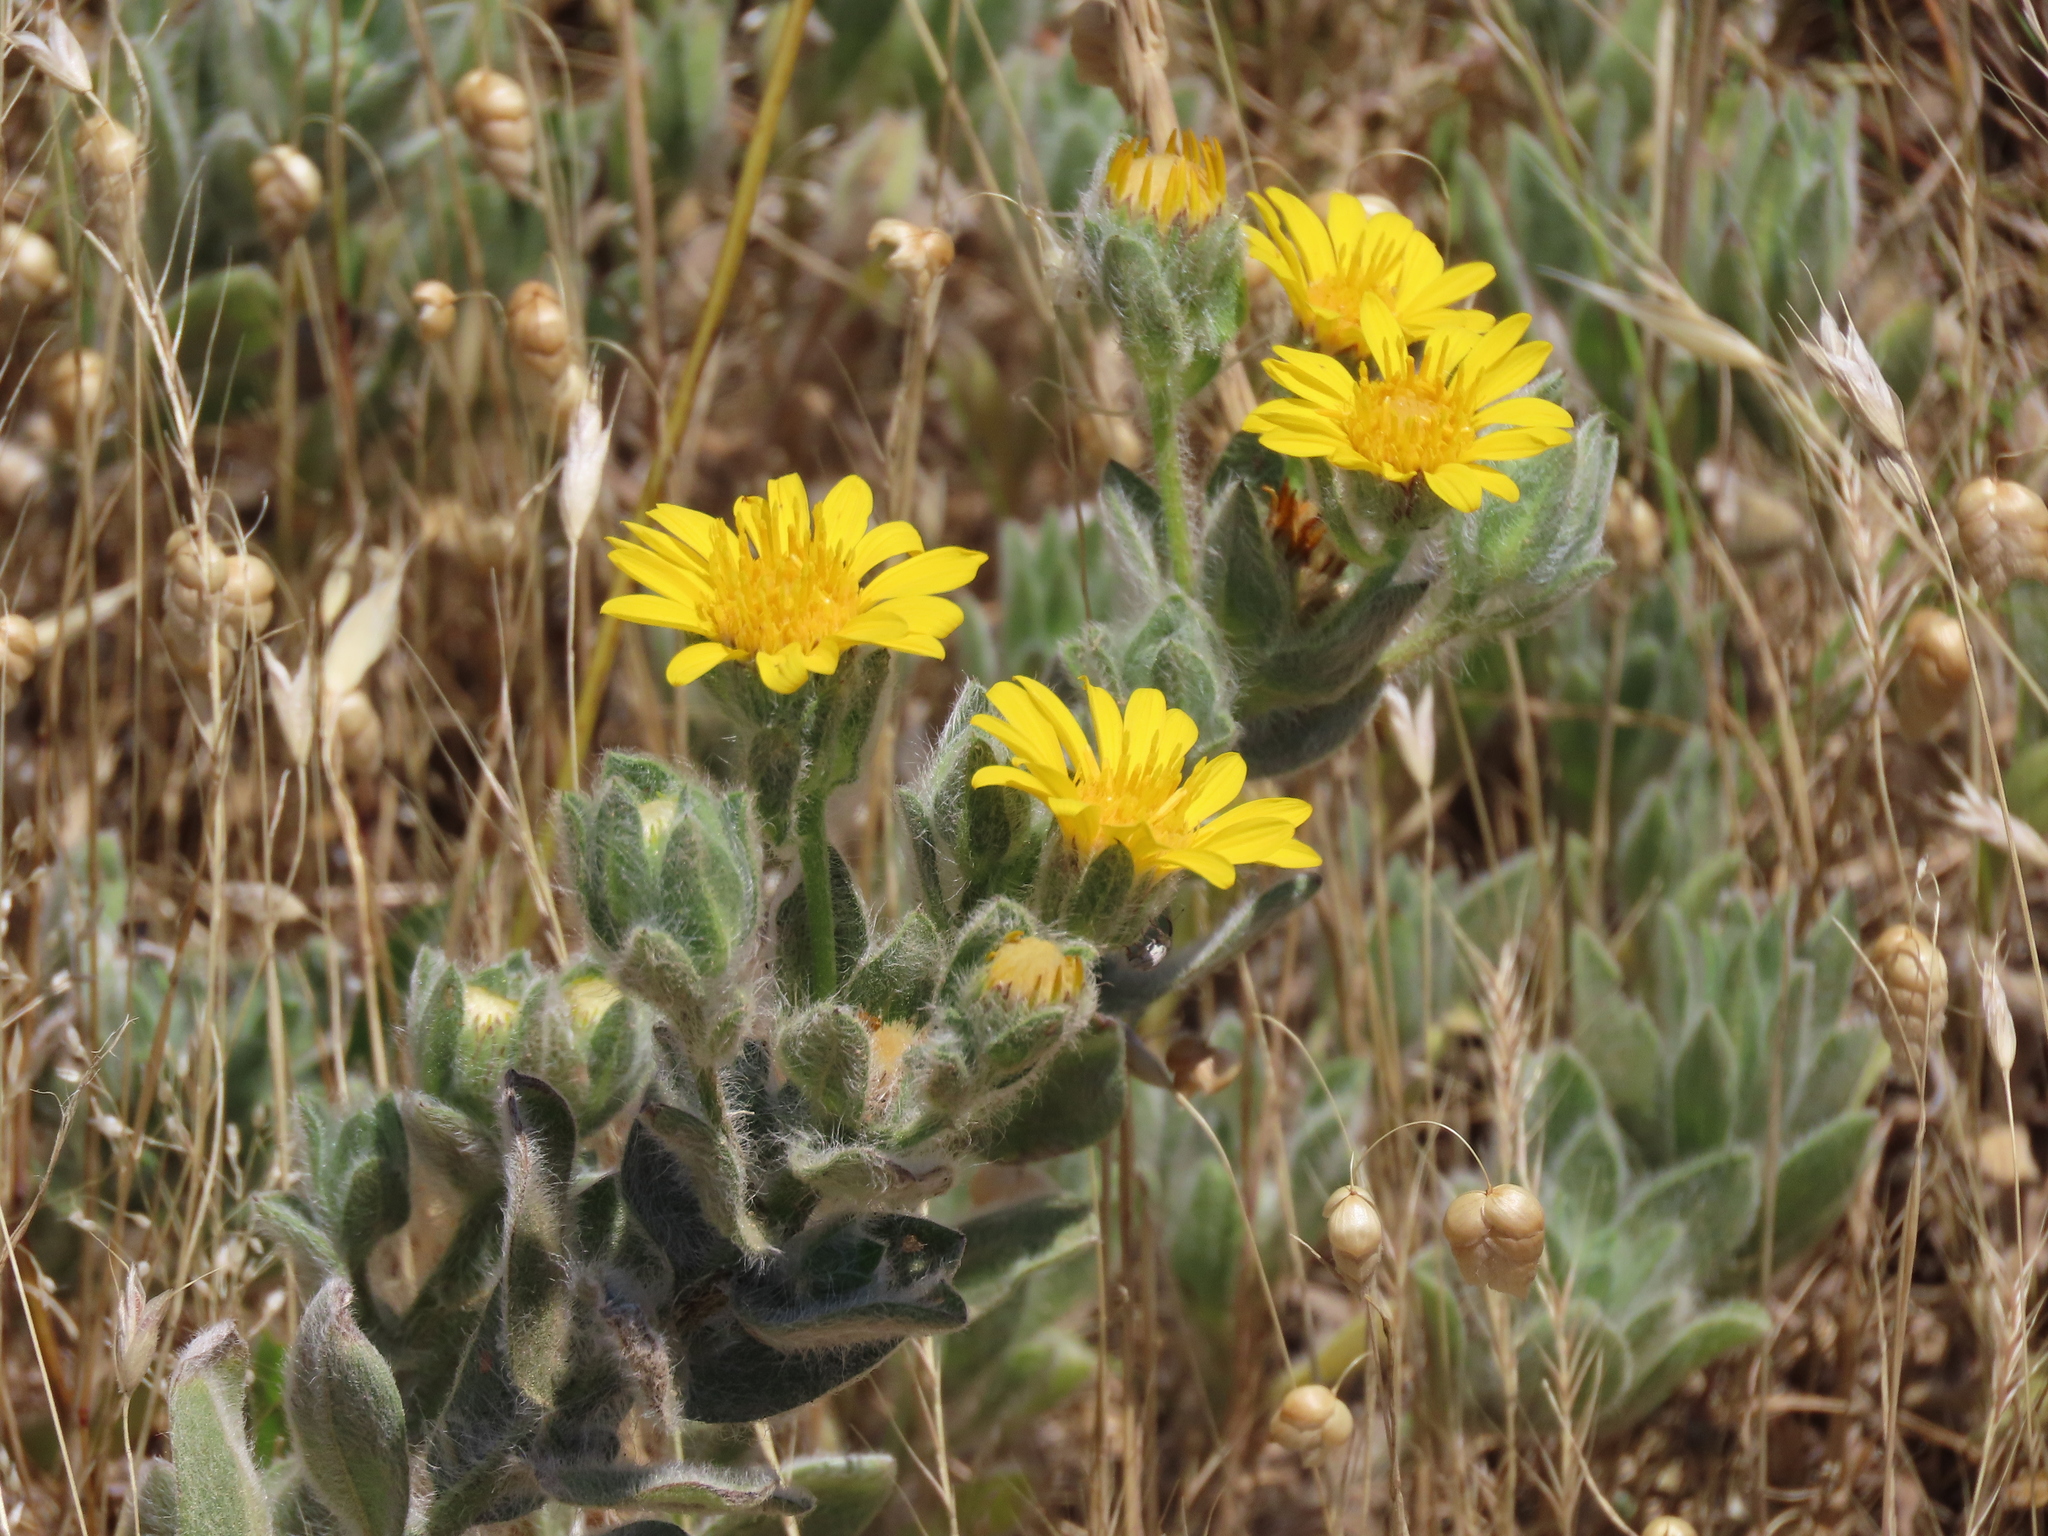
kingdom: Plantae
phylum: Tracheophyta
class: Magnoliopsida
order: Asterales
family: Asteraceae
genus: Heterotheca
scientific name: Heterotheca sessiliflora
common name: Sessile-flower golden-aster
